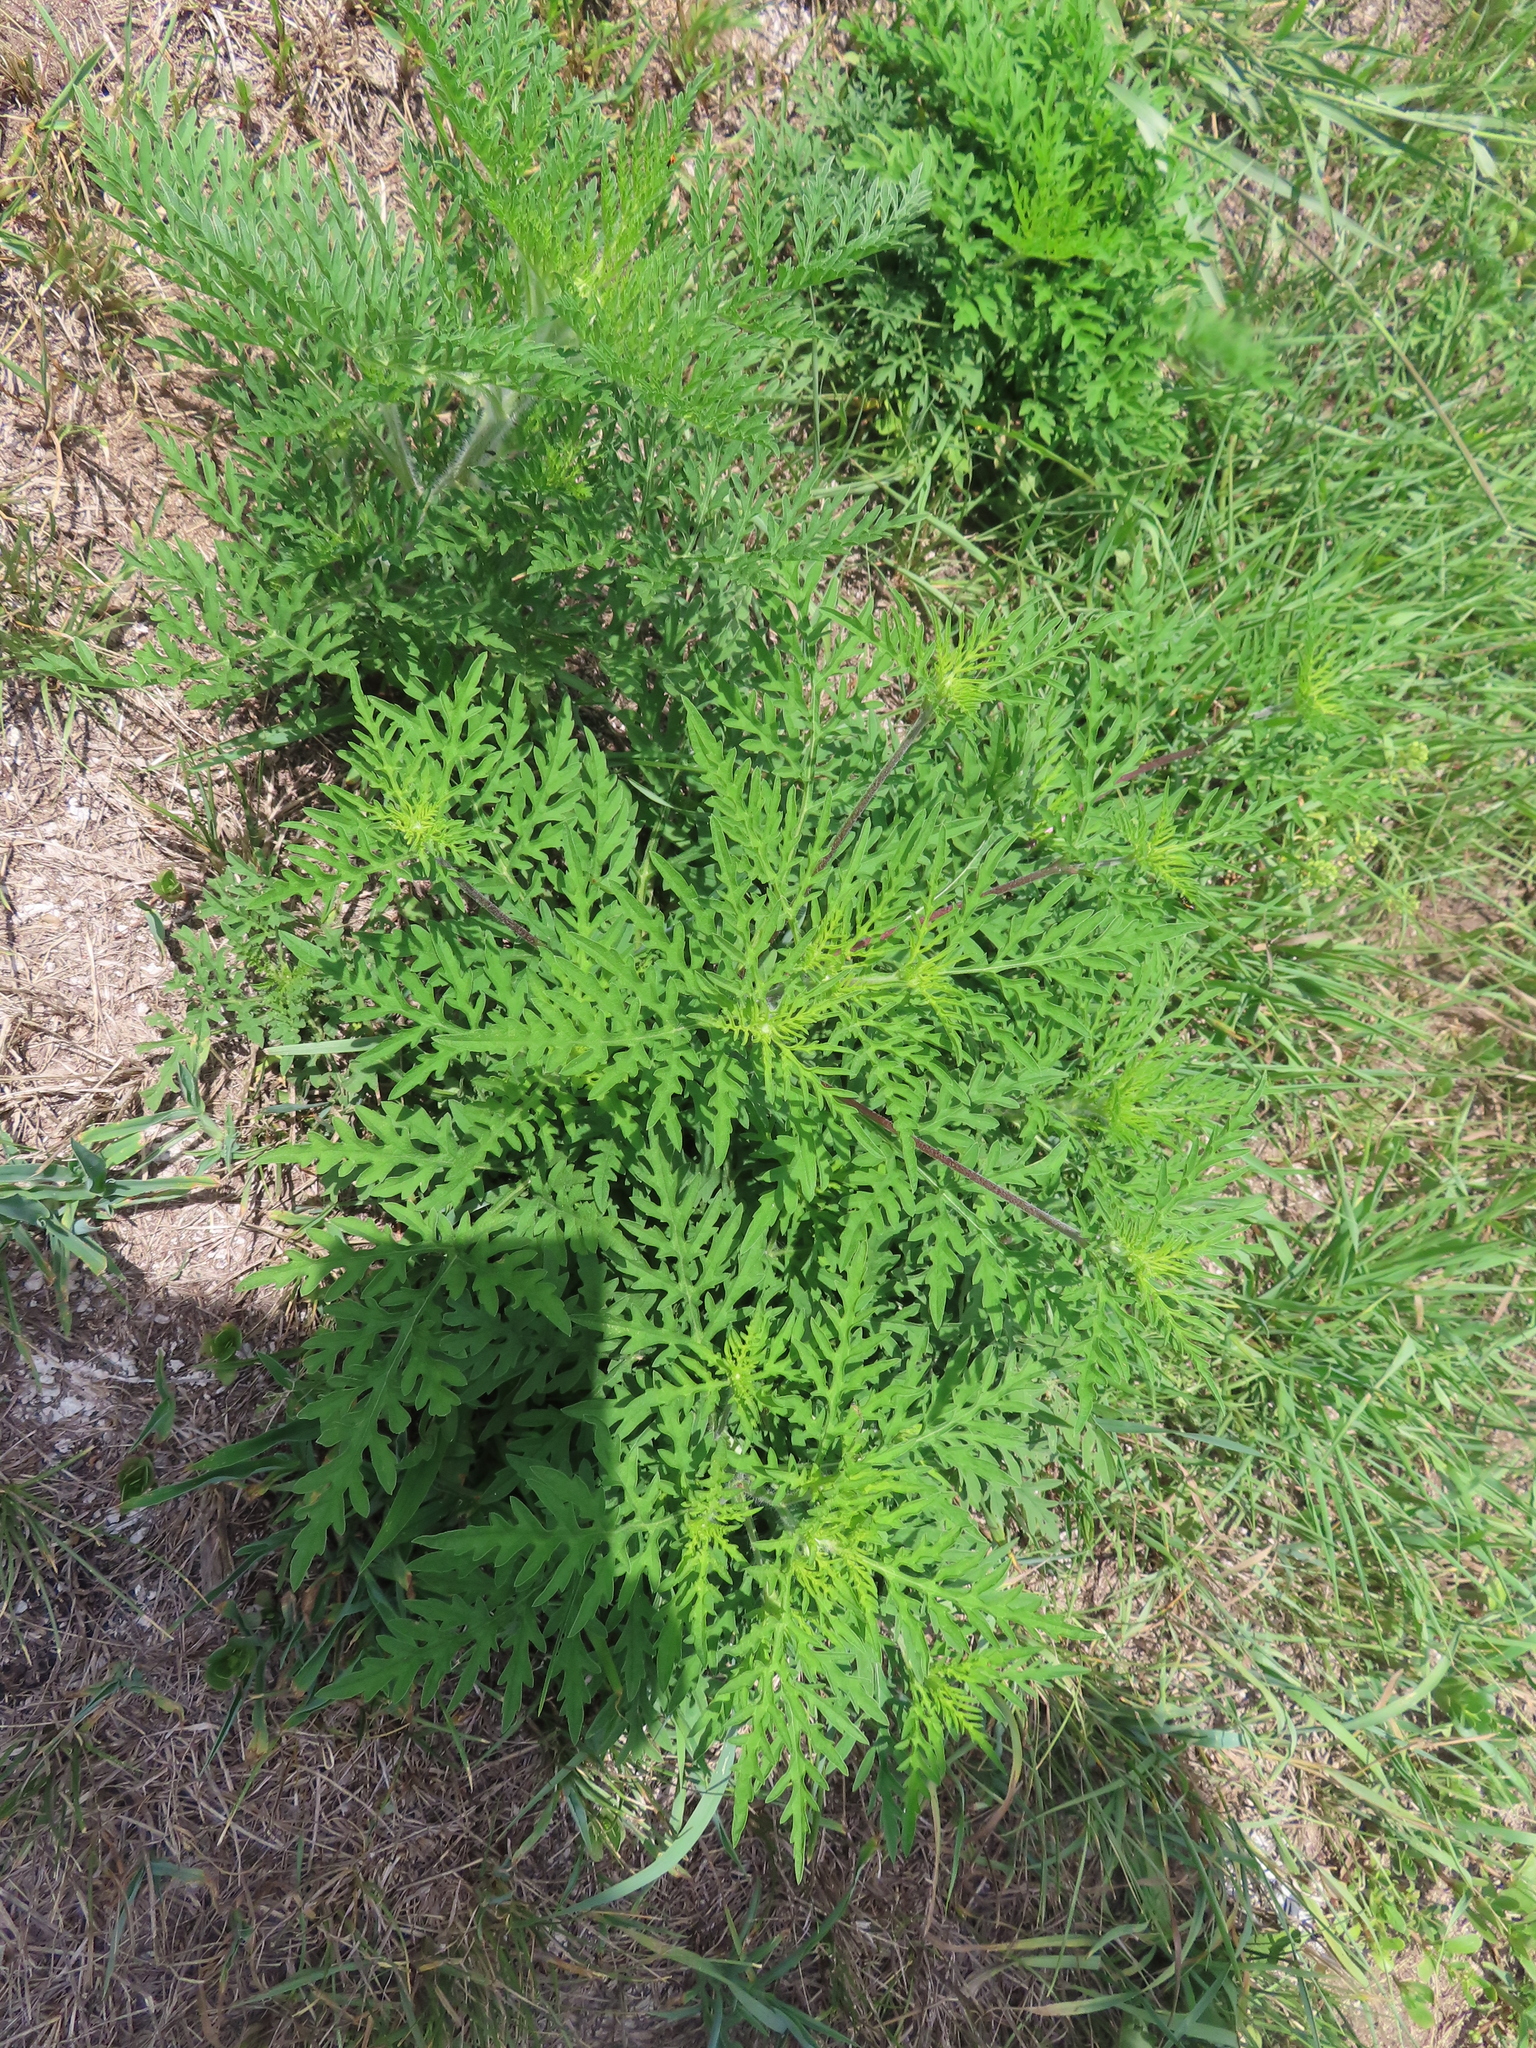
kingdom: Plantae
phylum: Tracheophyta
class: Magnoliopsida
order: Asterales
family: Asteraceae
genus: Ambrosia
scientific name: Ambrosia artemisiifolia
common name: Annual ragweed
